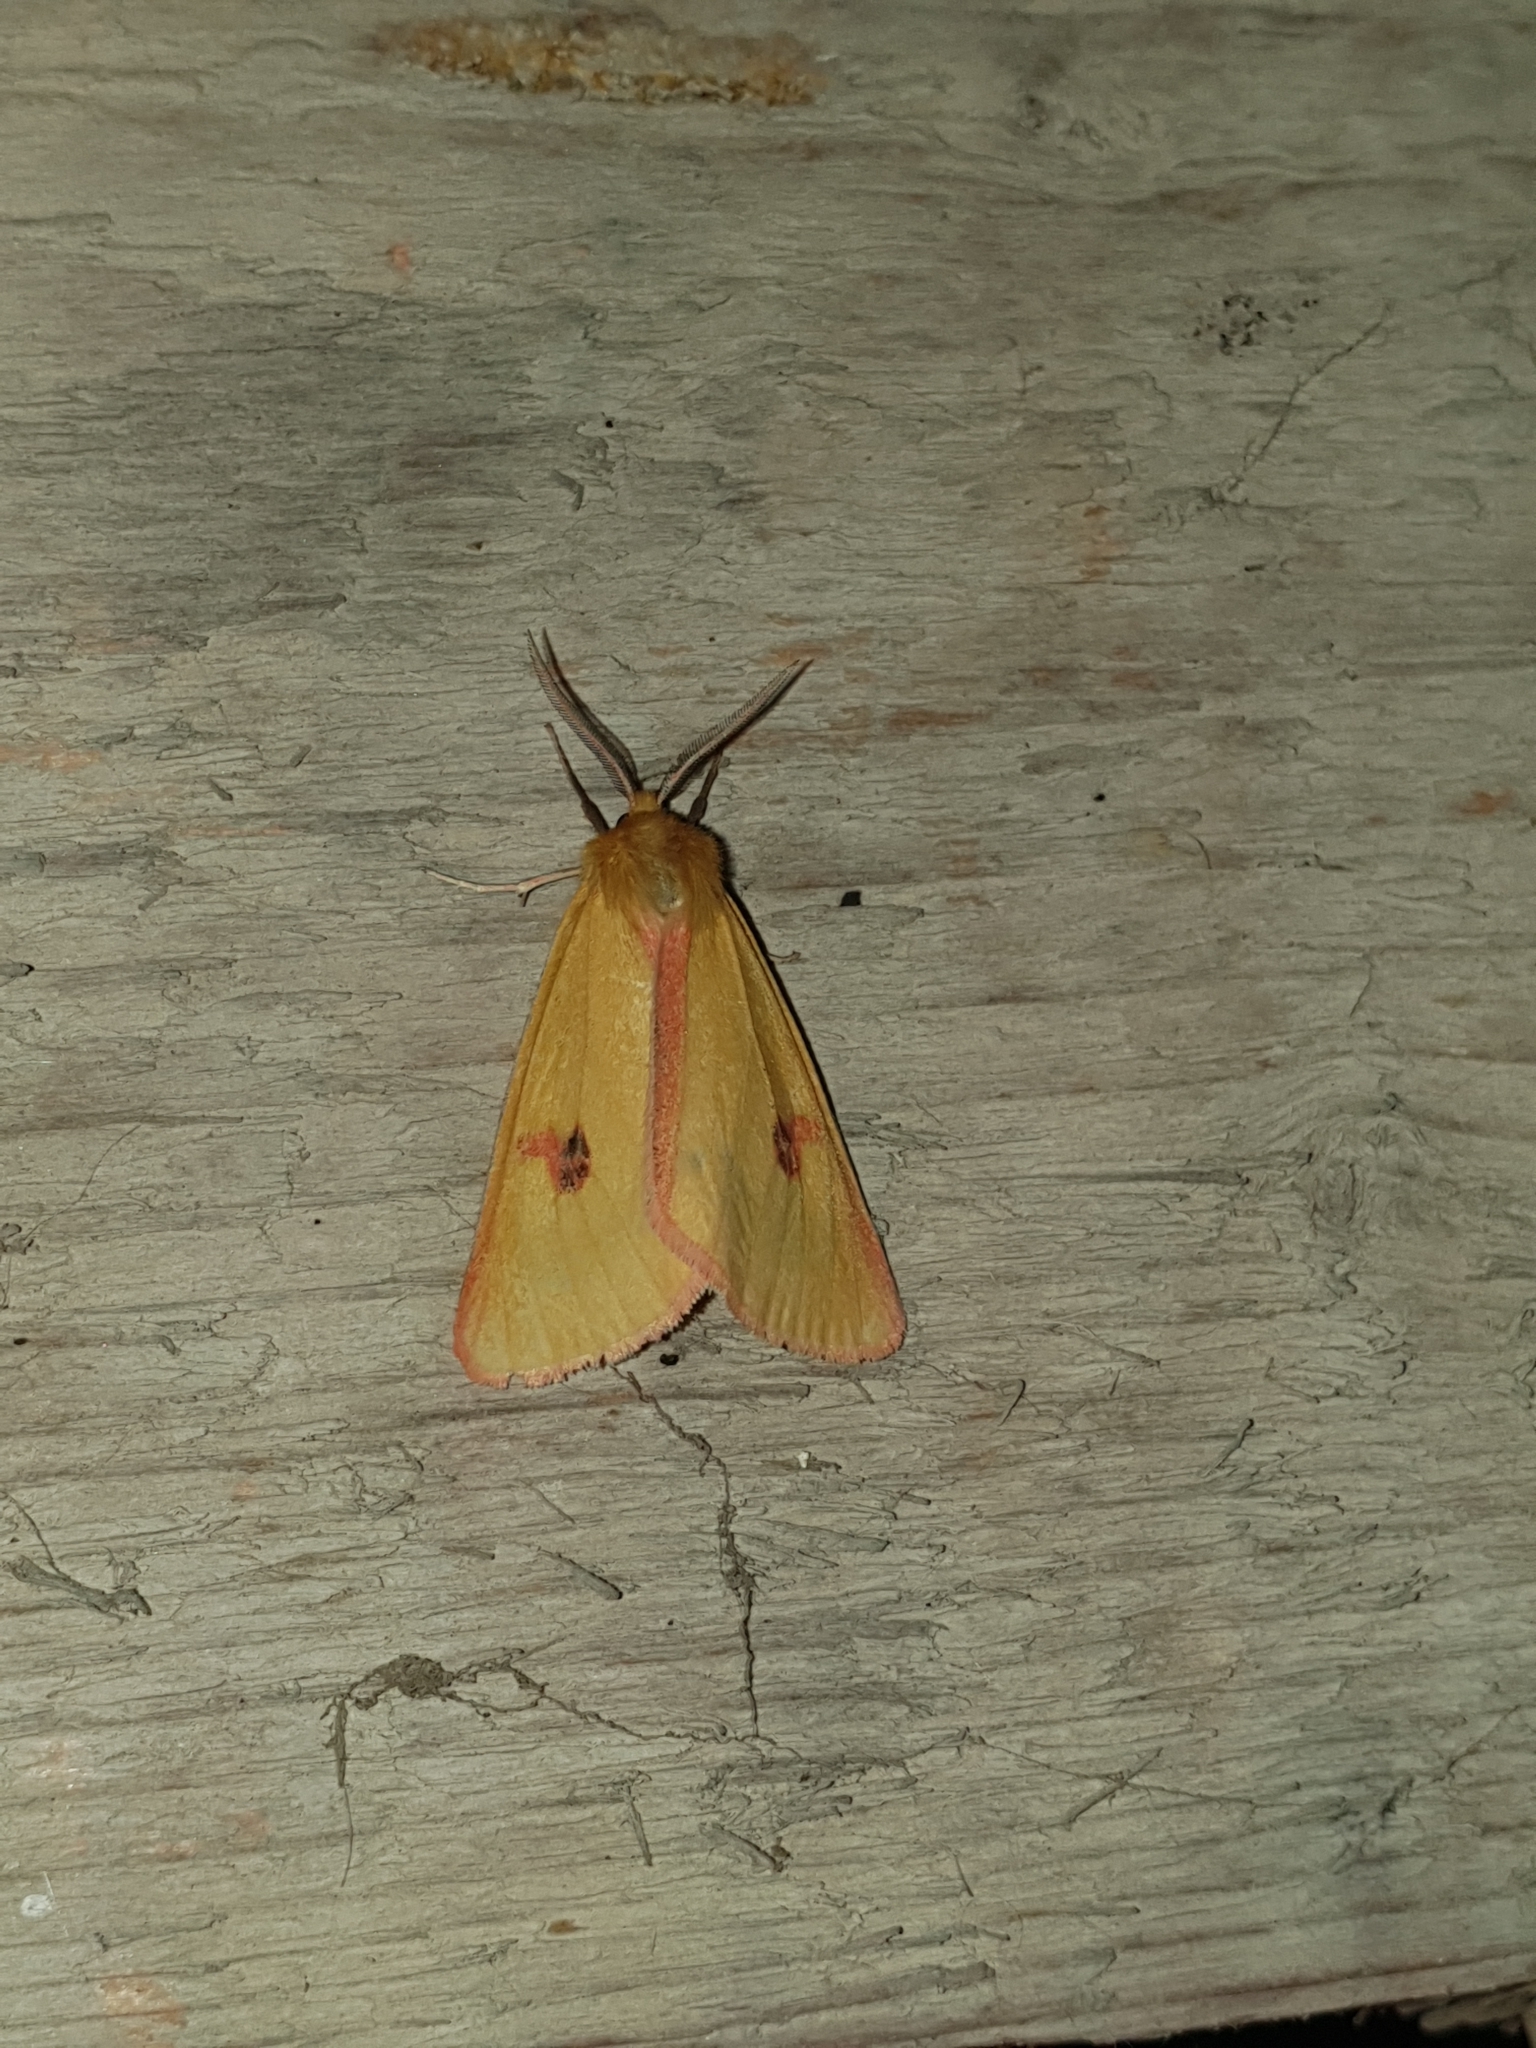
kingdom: Animalia
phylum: Arthropoda
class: Insecta
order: Lepidoptera
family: Erebidae
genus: Diacrisia
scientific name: Diacrisia sannio
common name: Clouded buff
